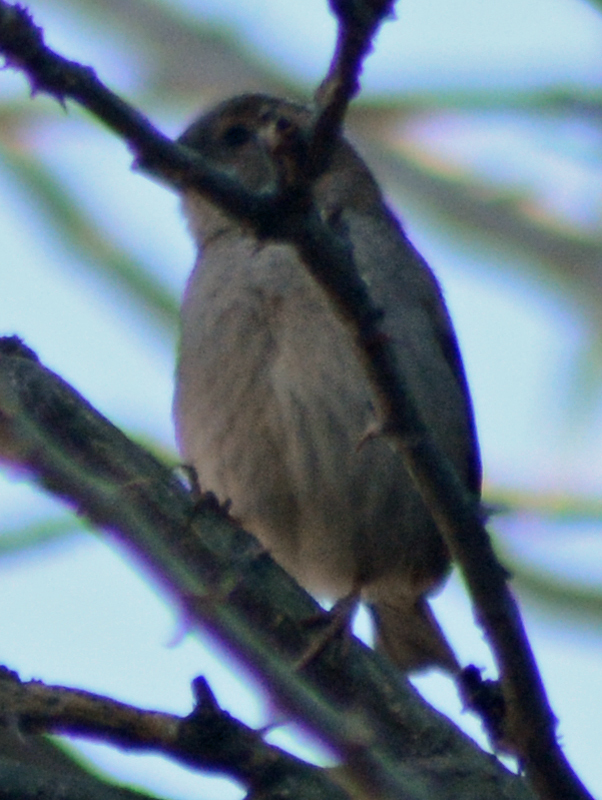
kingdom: Animalia
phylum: Chordata
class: Aves
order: Passeriformes
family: Passeridae
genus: Passer
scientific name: Passer domesticus
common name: House sparrow
